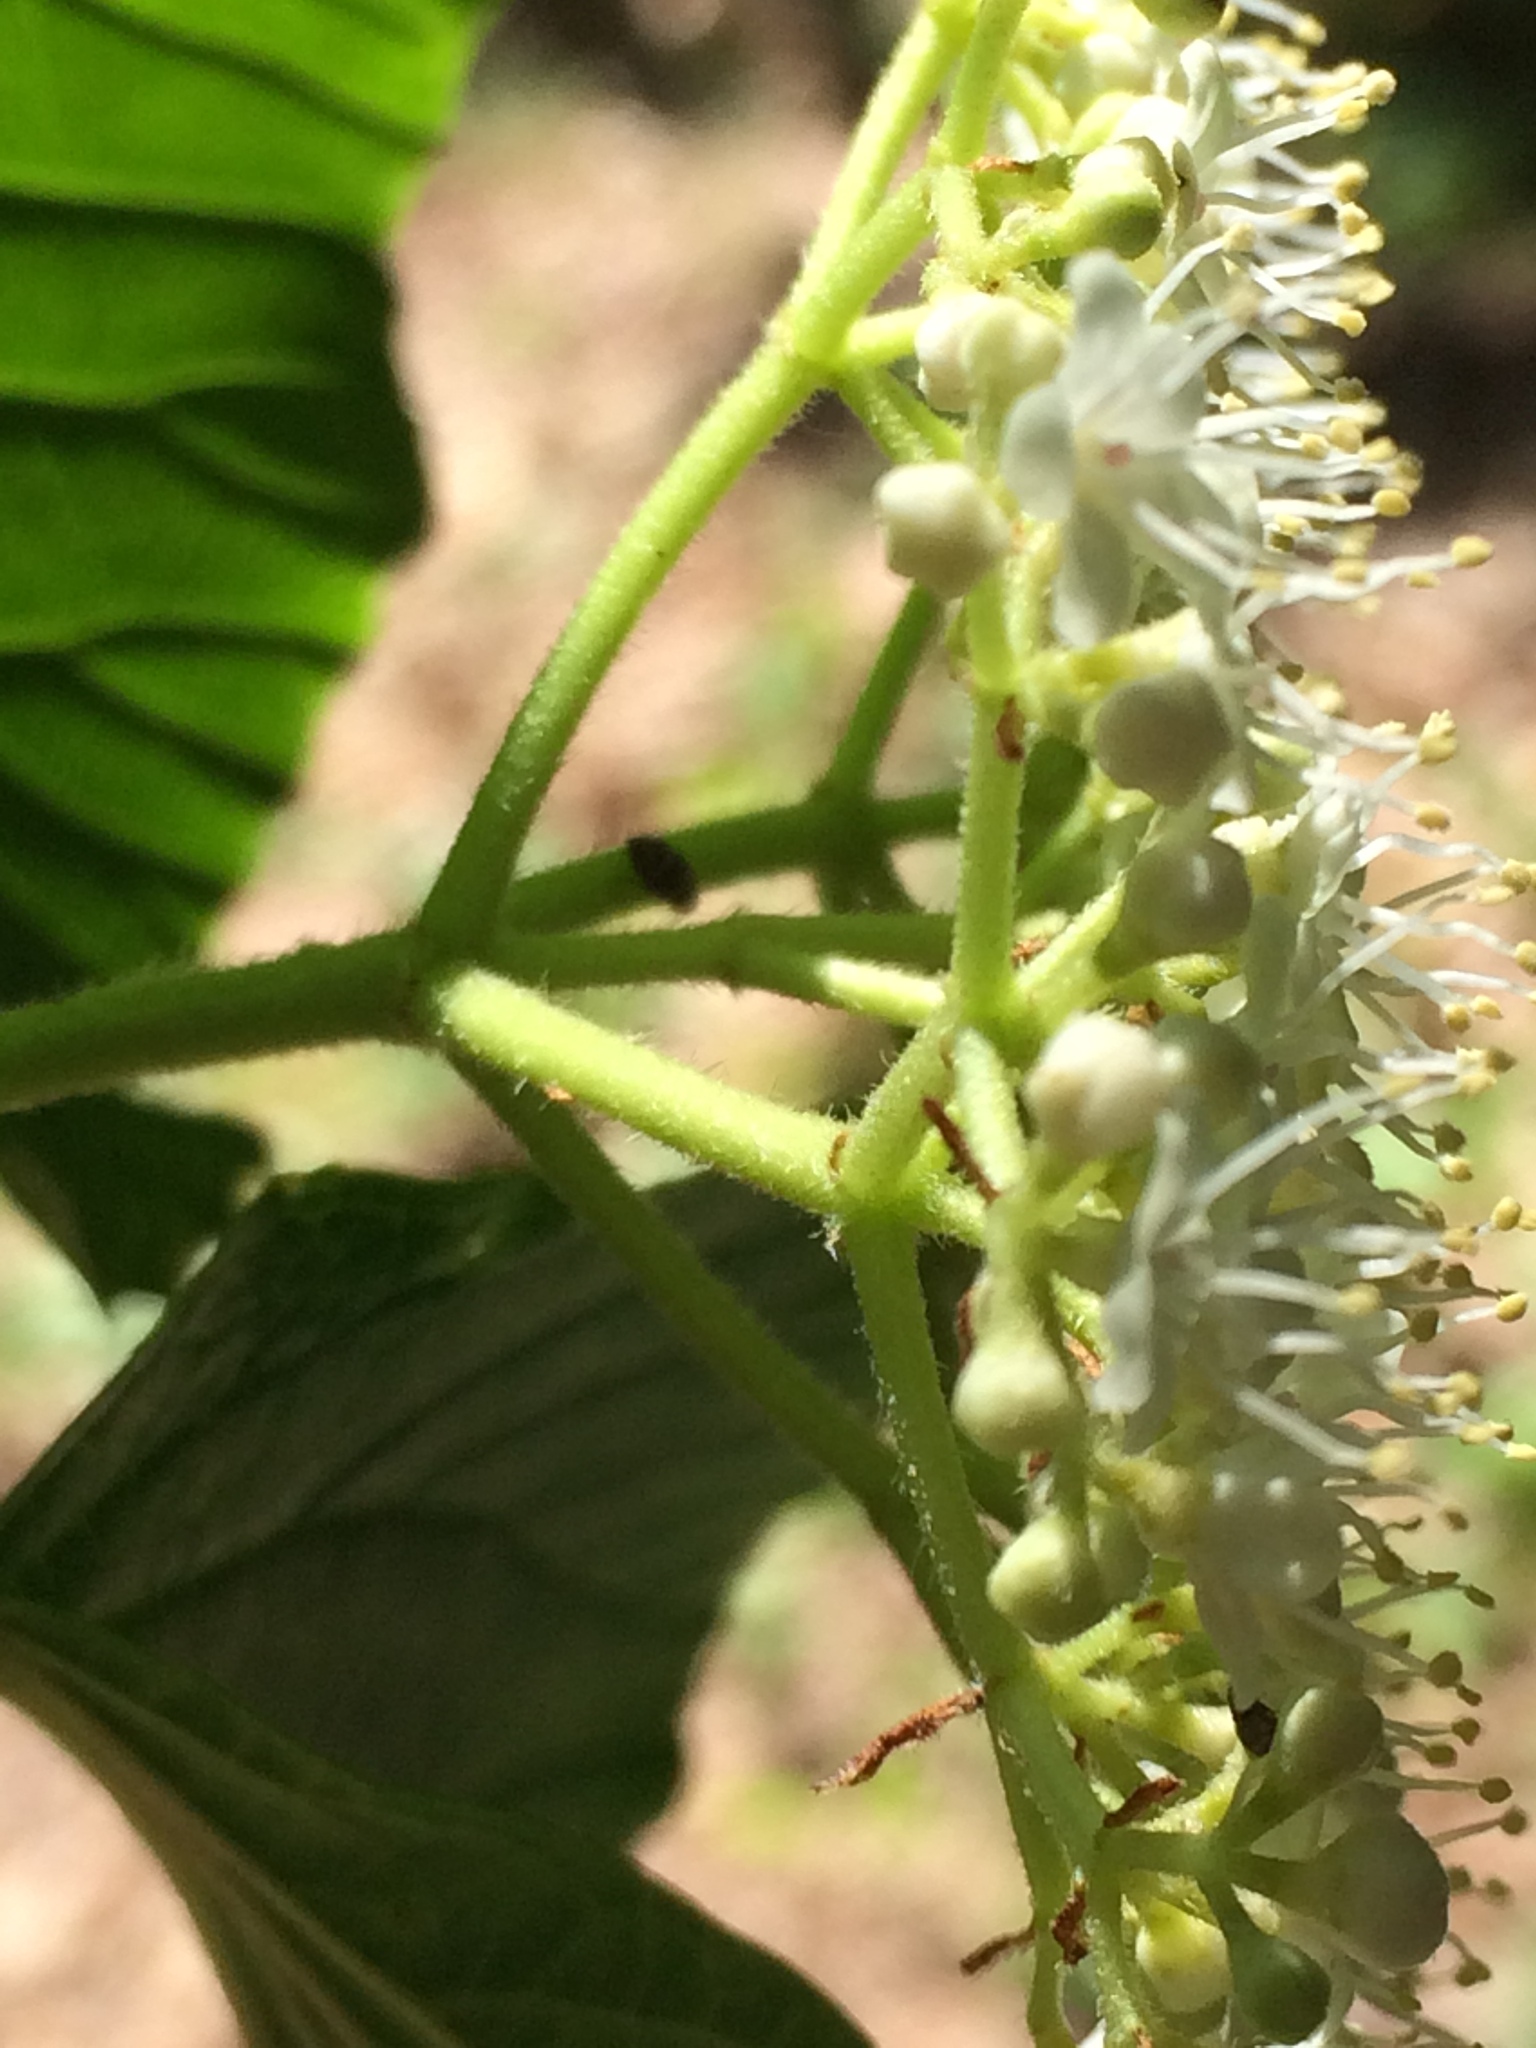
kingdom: Plantae
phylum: Tracheophyta
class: Magnoliopsida
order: Dipsacales
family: Viburnaceae
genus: Viburnum
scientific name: Viburnum dilatatum
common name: Linden arrowwood
